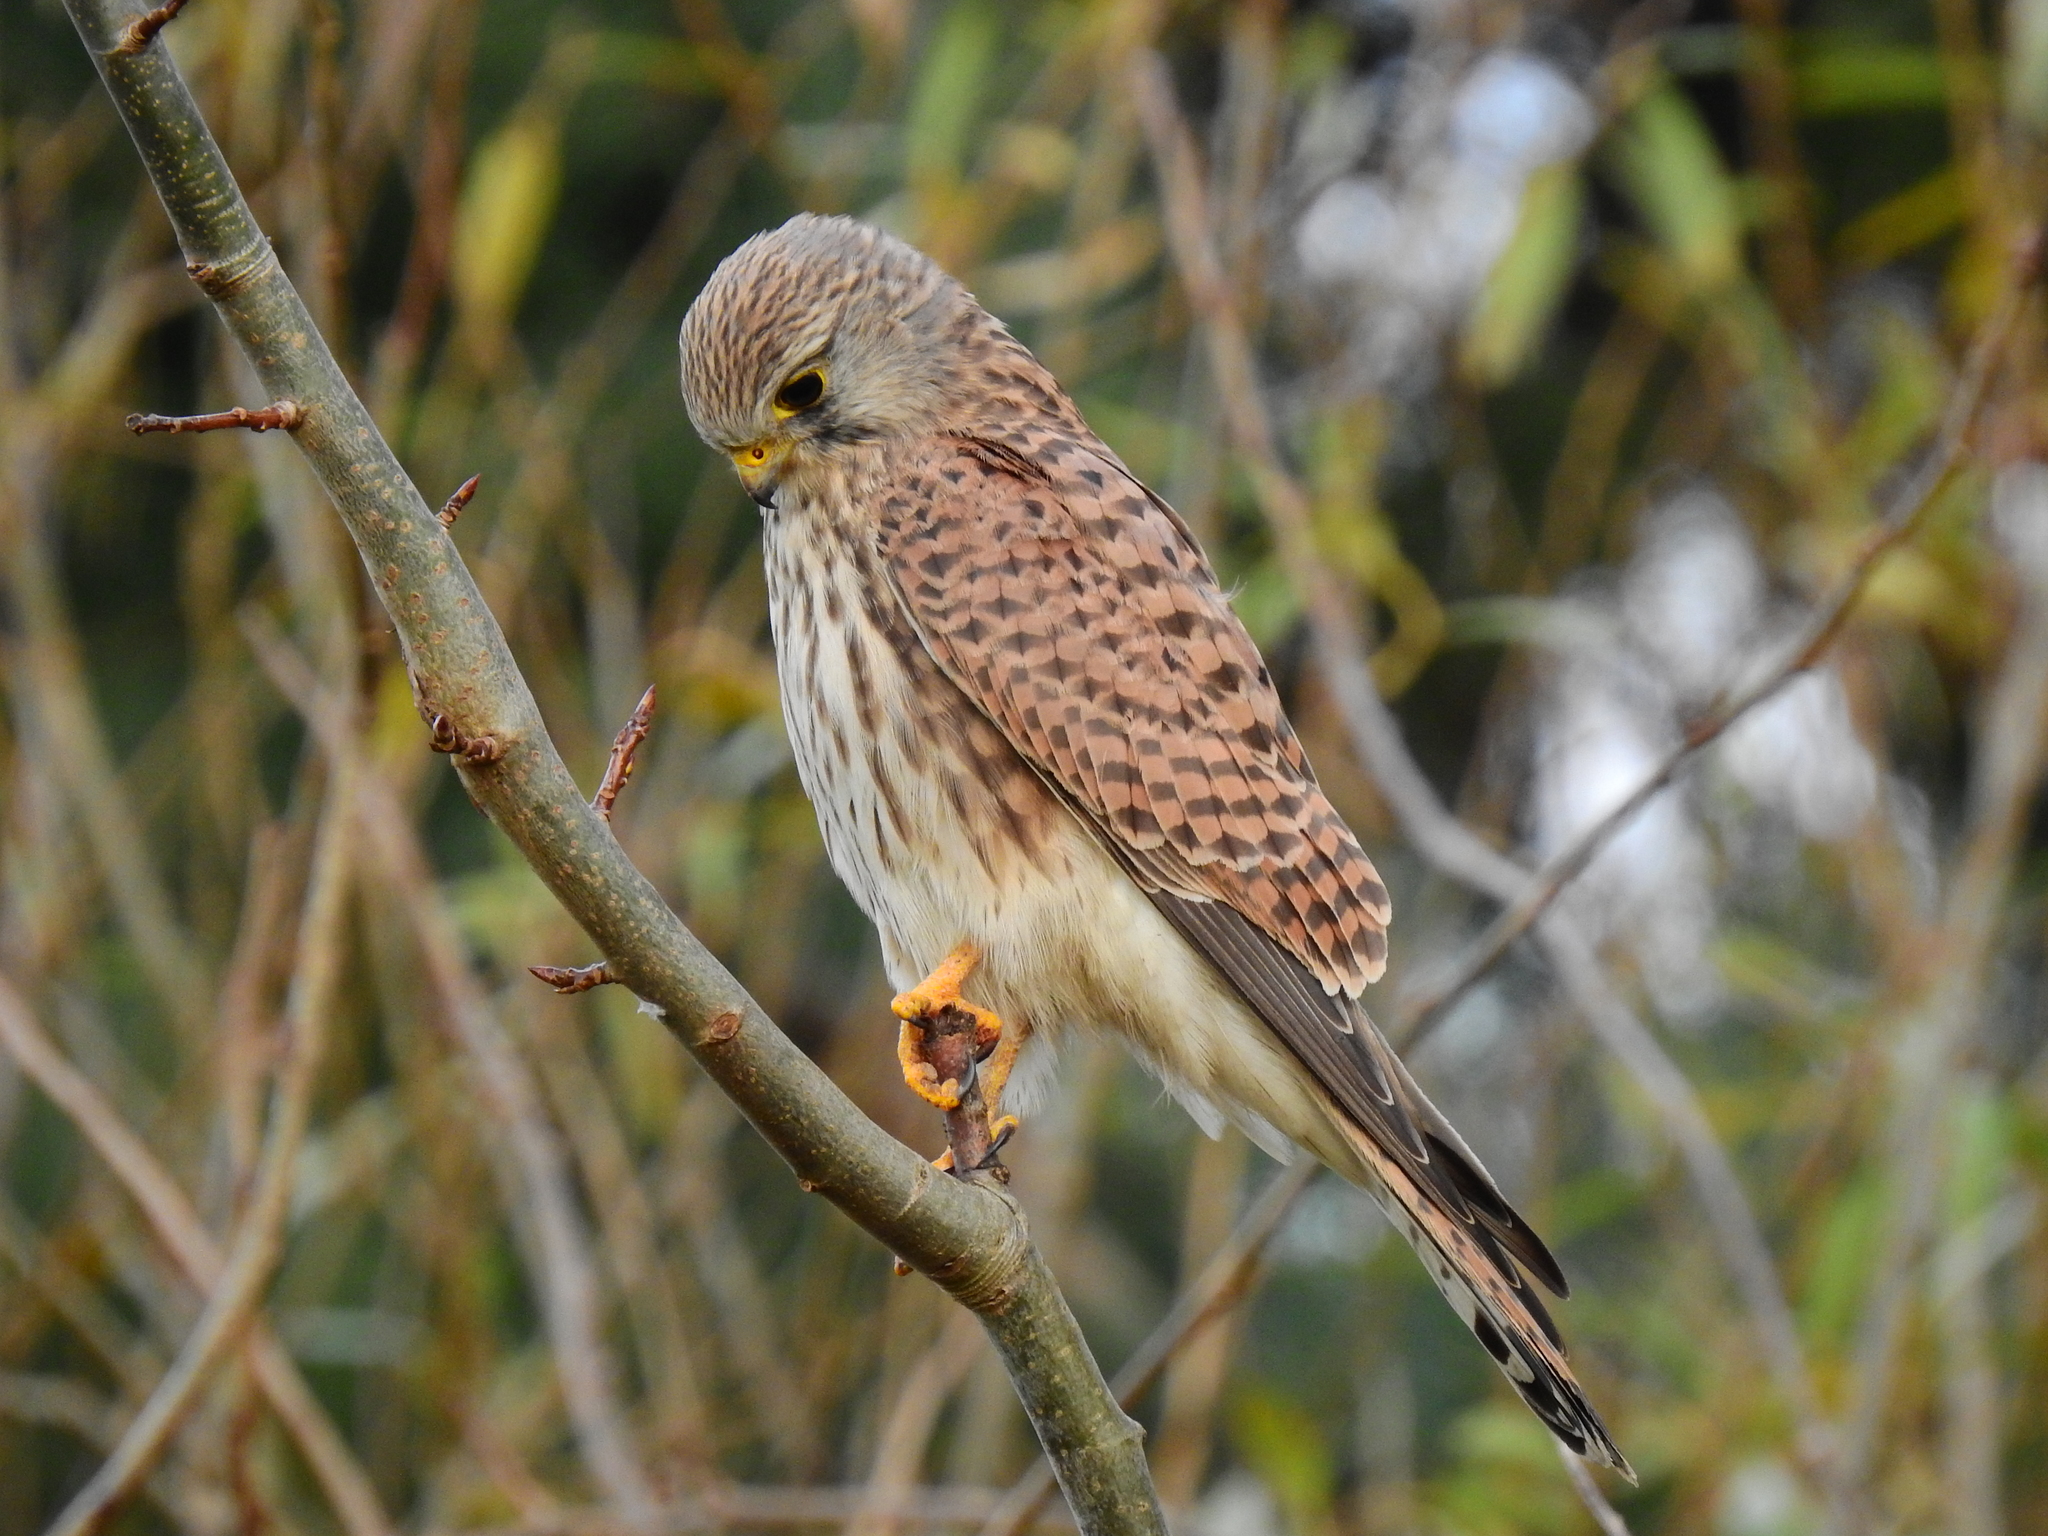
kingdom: Animalia
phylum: Chordata
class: Aves
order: Falconiformes
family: Falconidae
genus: Falco
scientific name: Falco tinnunculus
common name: Common kestrel
